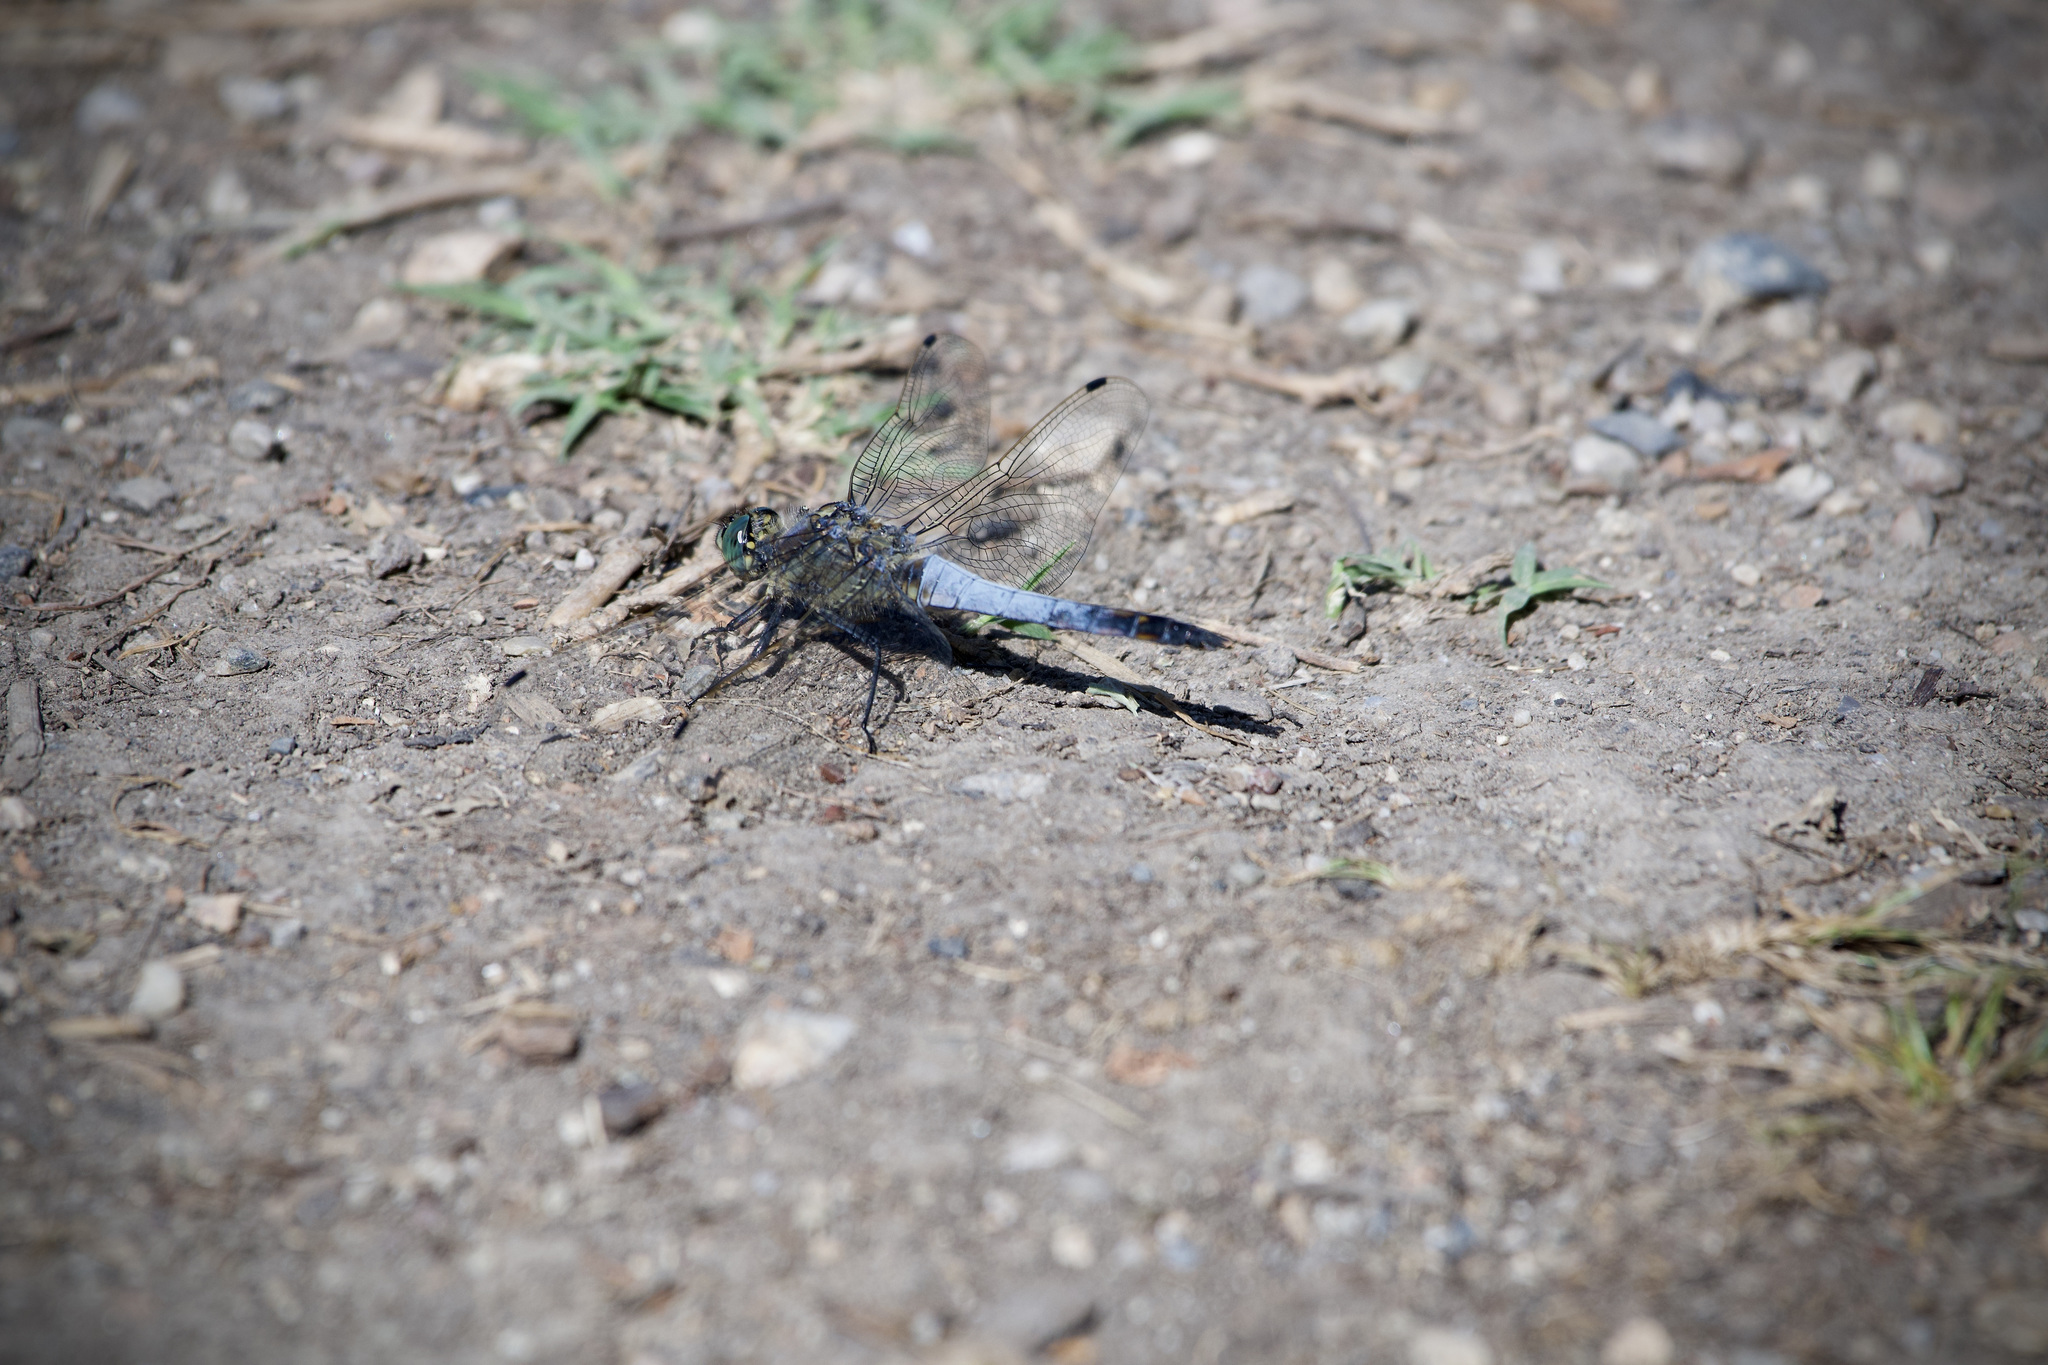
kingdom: Animalia
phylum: Arthropoda
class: Insecta
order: Odonata
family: Libellulidae
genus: Orthetrum
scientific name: Orthetrum cancellatum
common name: Black-tailed skimmer
